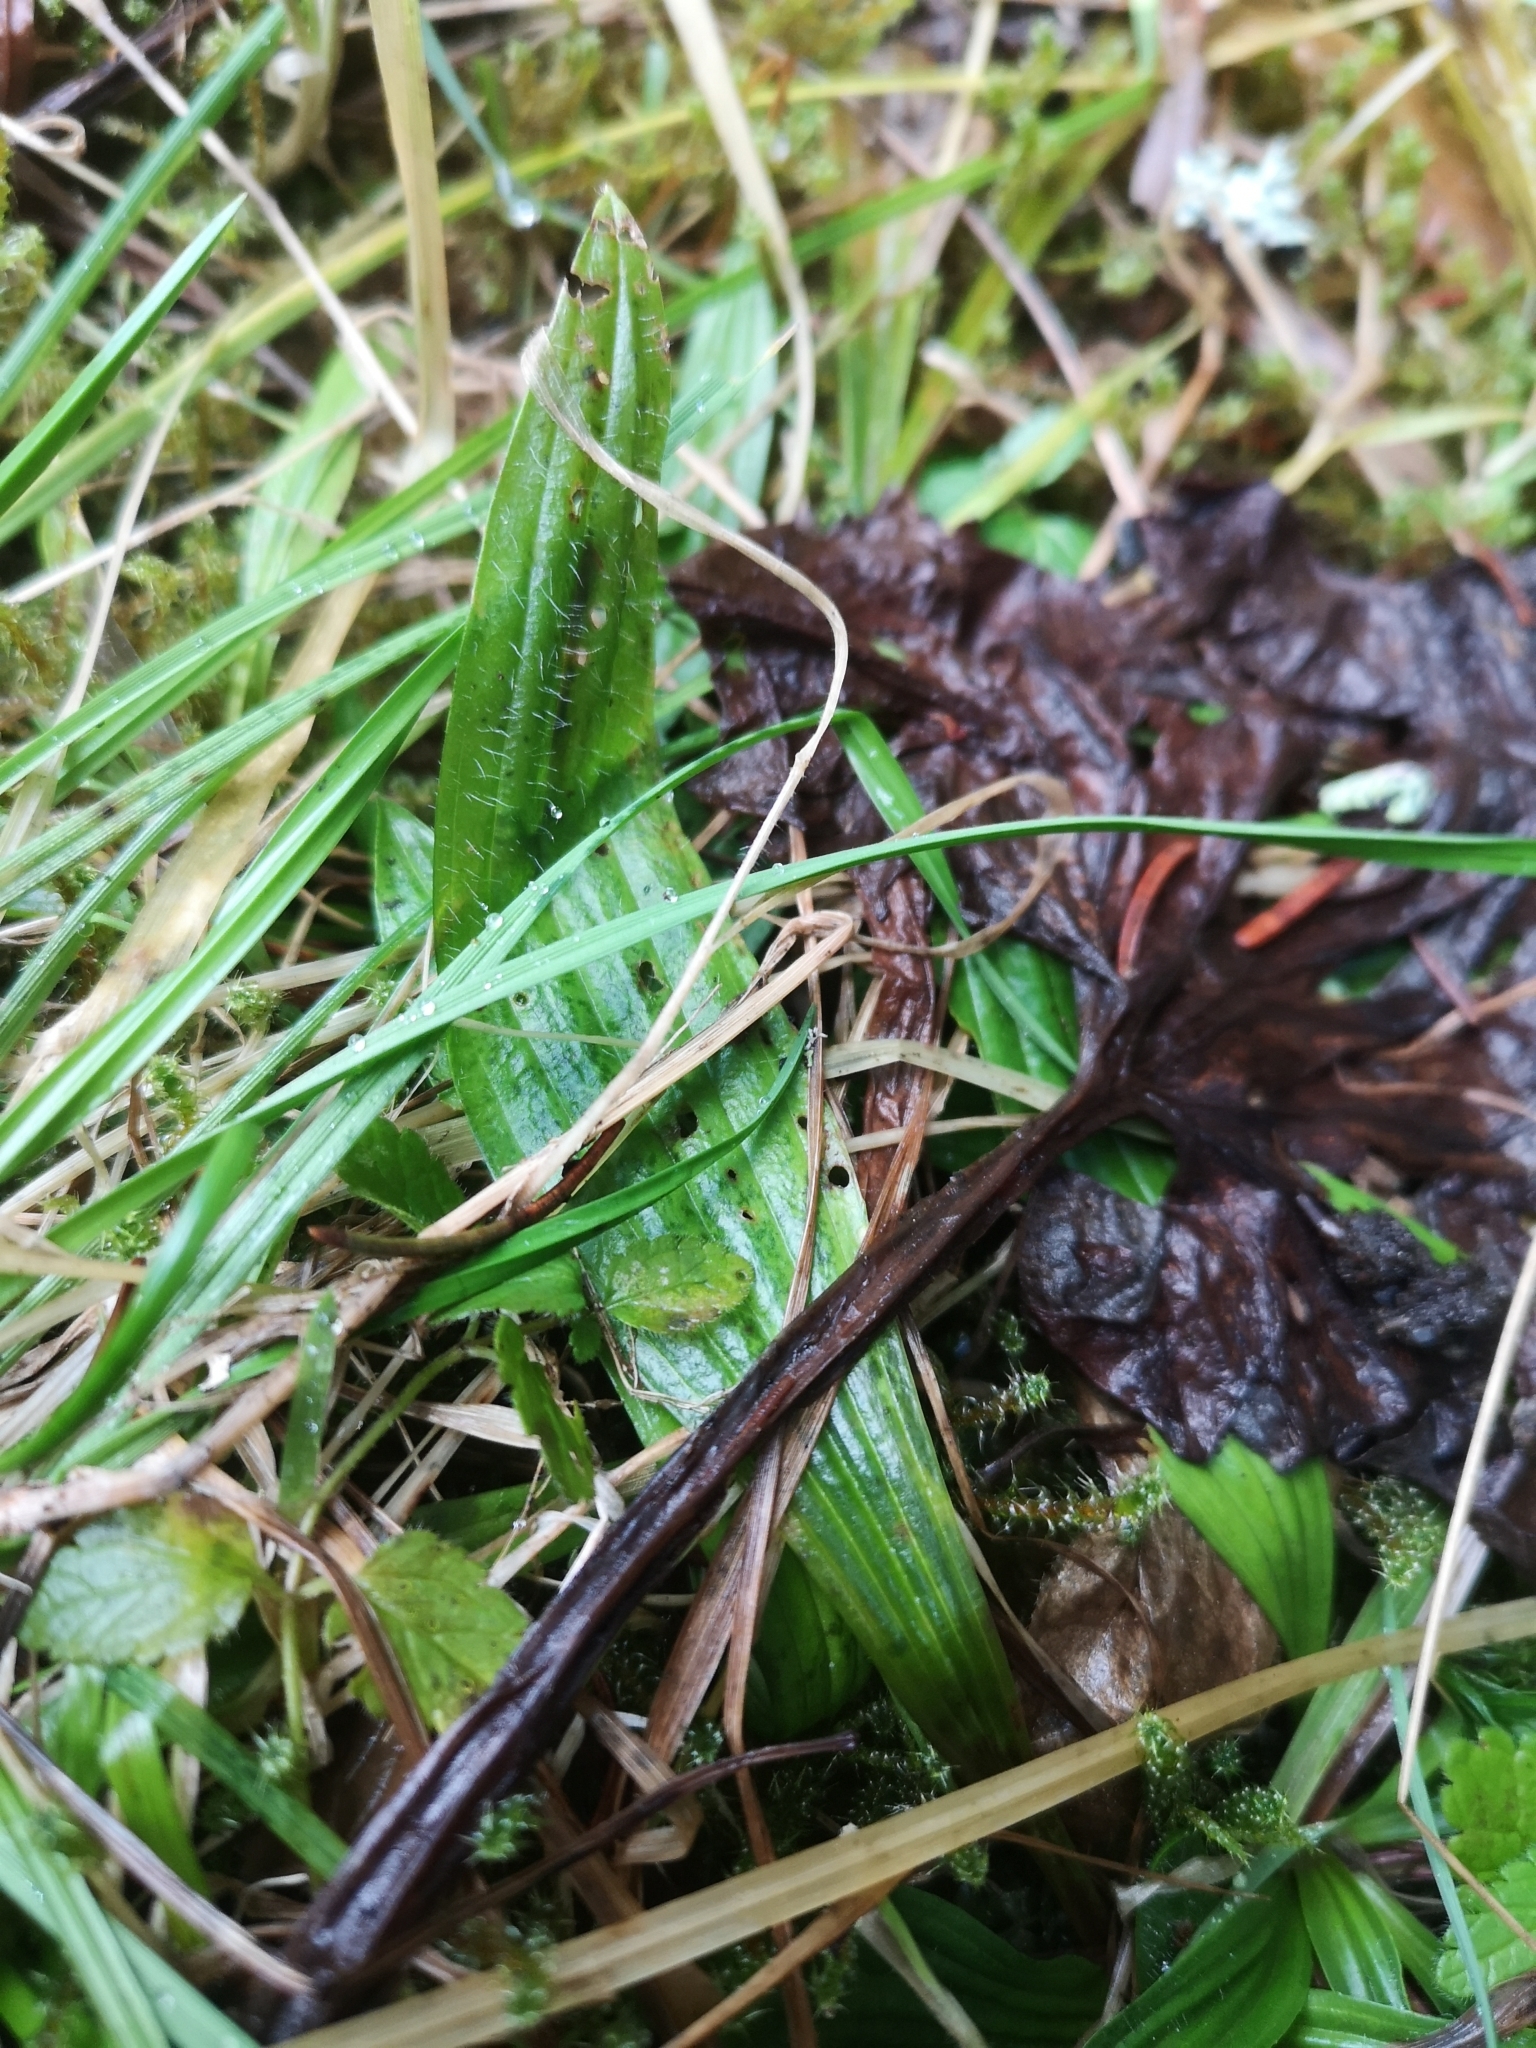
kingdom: Plantae
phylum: Tracheophyta
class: Magnoliopsida
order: Lamiales
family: Plantaginaceae
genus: Plantago
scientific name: Plantago lanceolata
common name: Ribwort plantain
